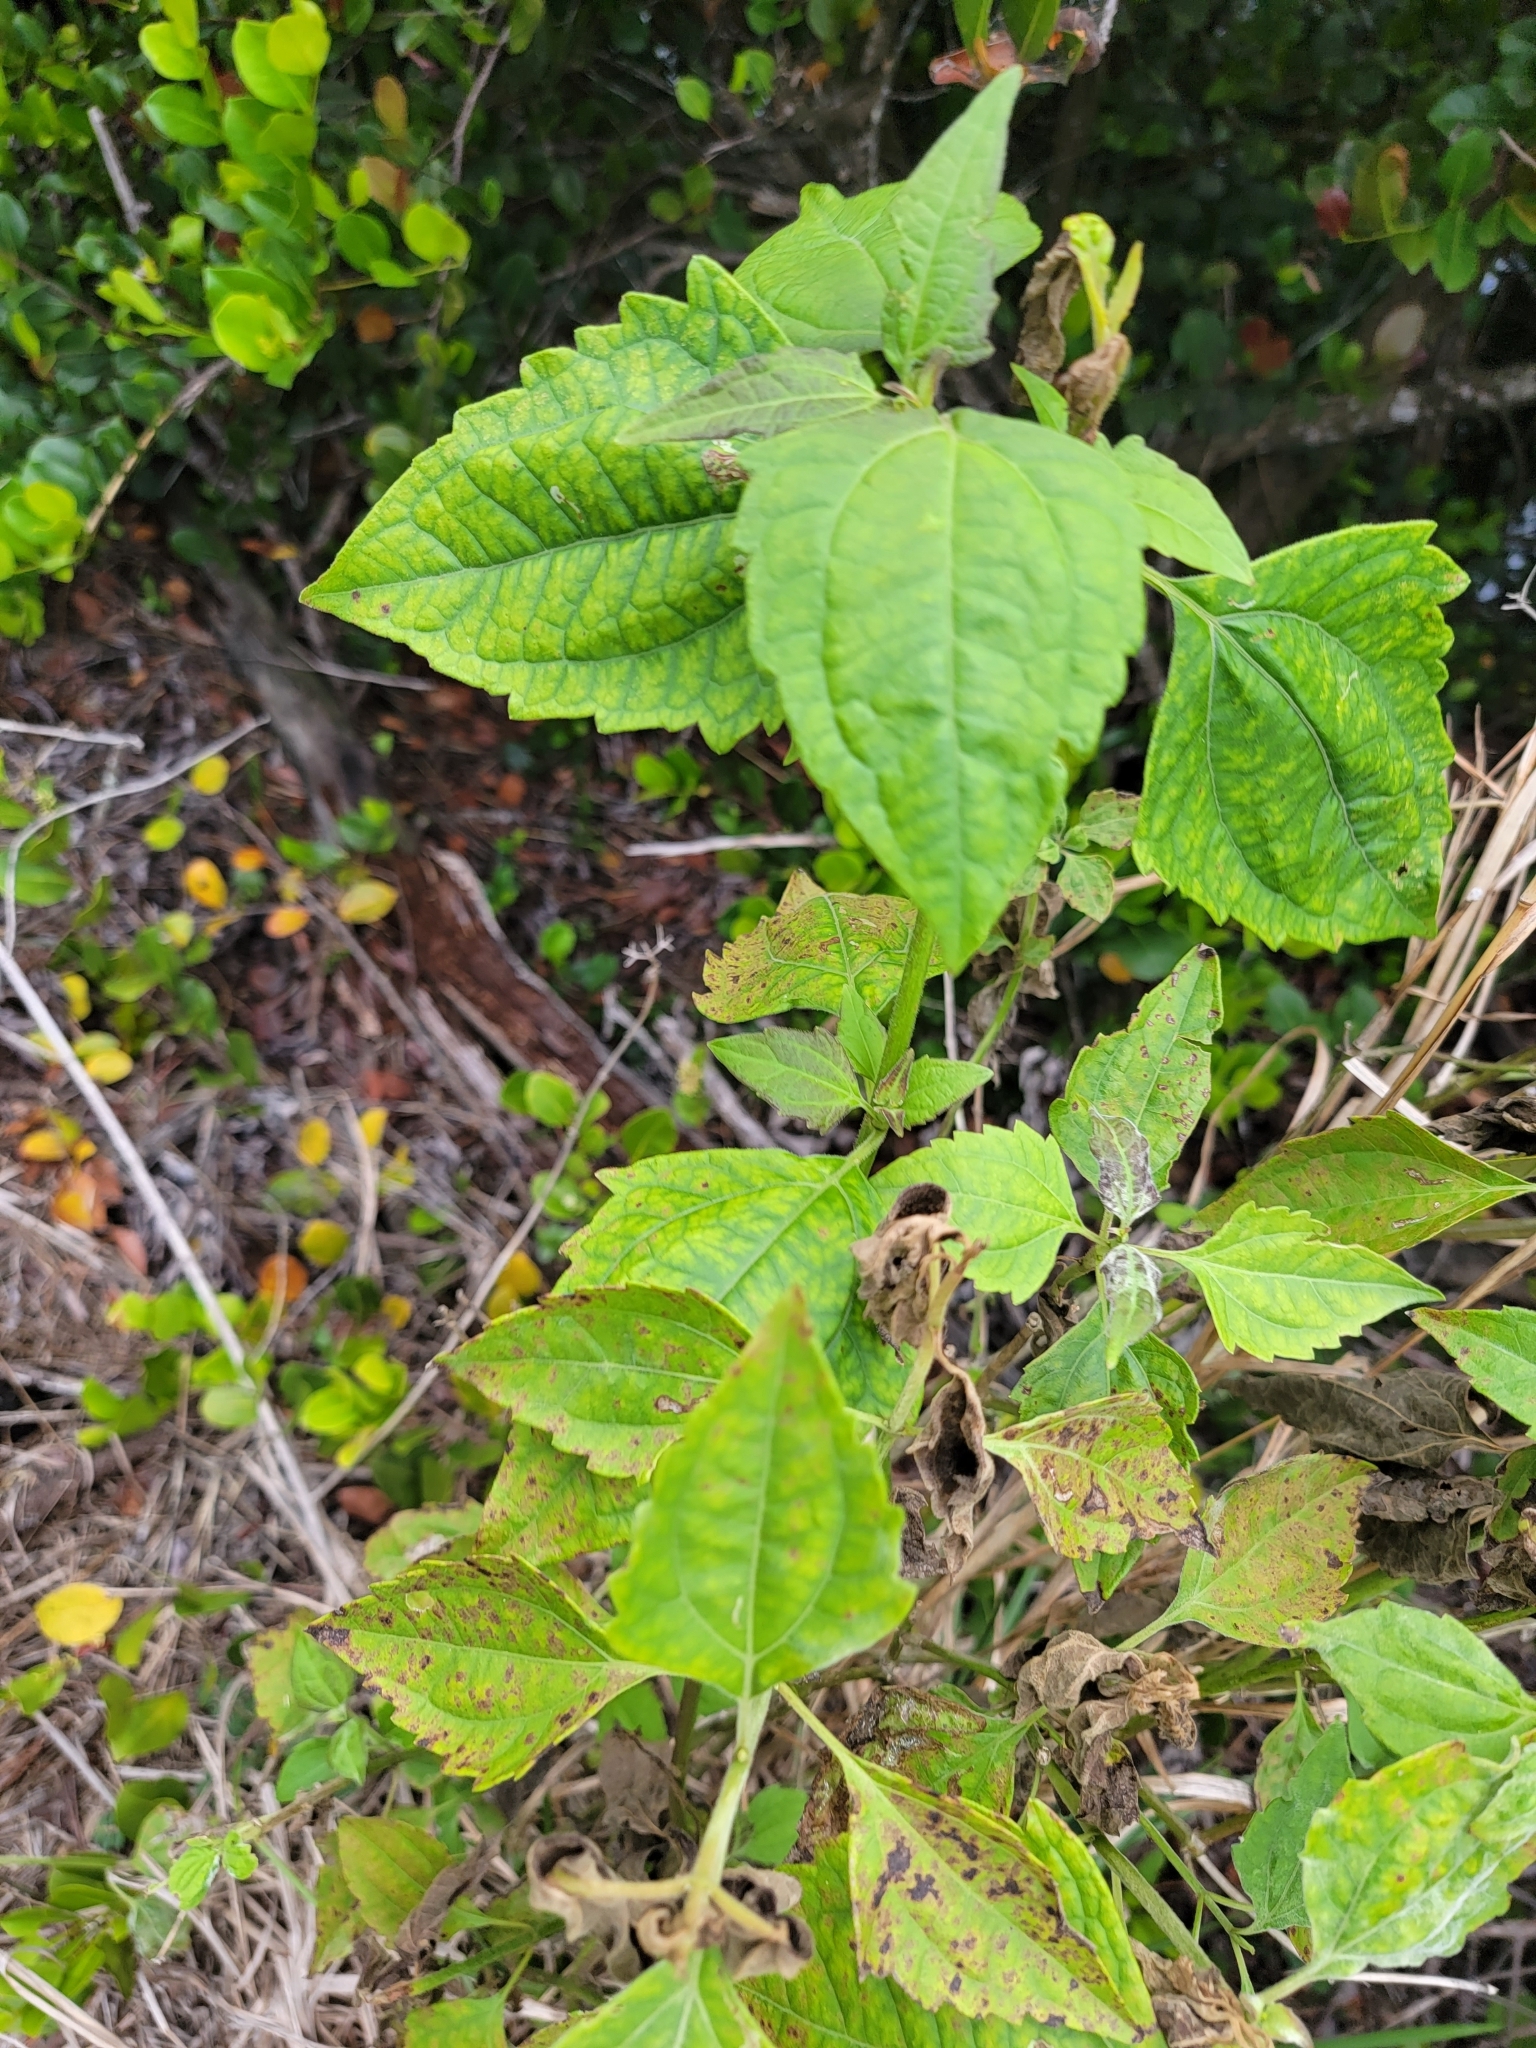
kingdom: Plantae
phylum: Tracheophyta
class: Magnoliopsida
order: Asterales
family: Asteraceae
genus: Chromolaena
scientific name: Chromolaena odorata
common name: Siamweed
